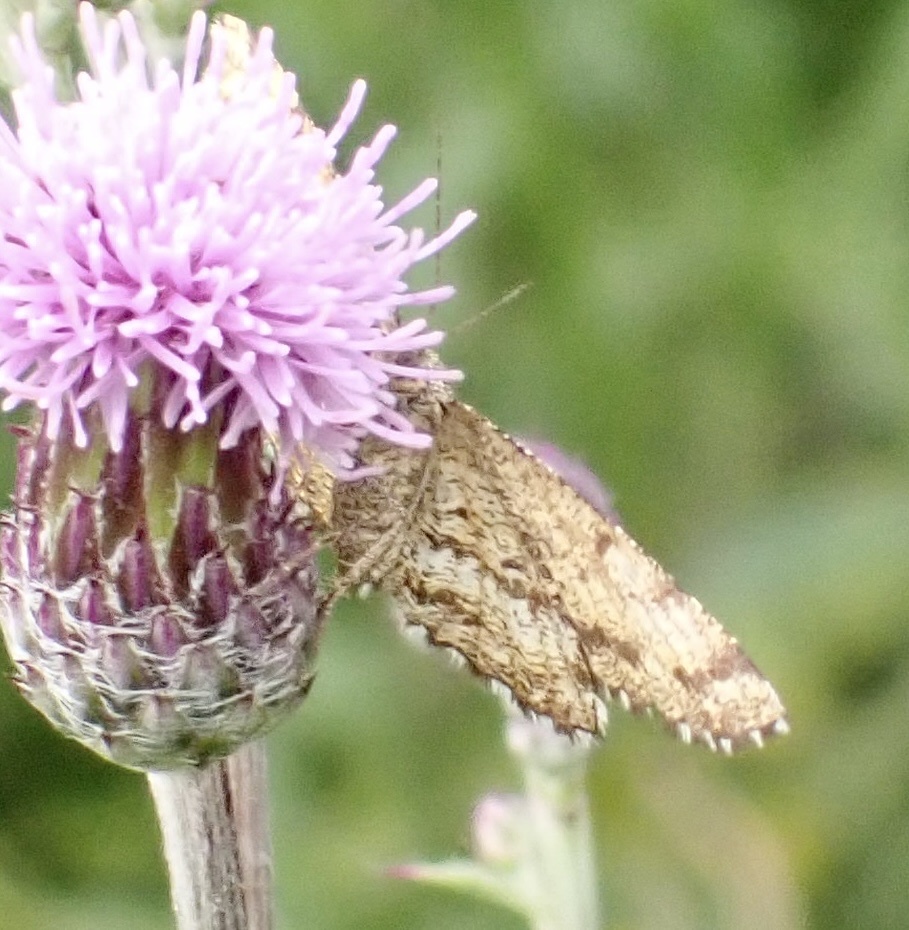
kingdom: Animalia
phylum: Arthropoda
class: Insecta
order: Lepidoptera
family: Geometridae
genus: Ematurga
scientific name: Ematurga atomaria
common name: Common heath
